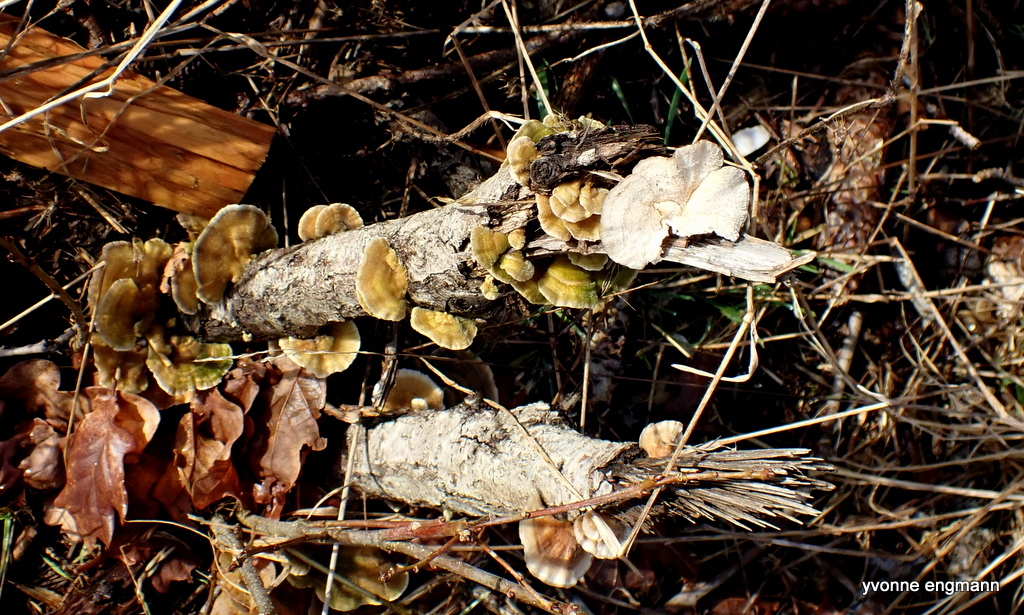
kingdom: Fungi
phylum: Basidiomycota
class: Agaricomycetes
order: Polyporales
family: Polyporaceae
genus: Trametes
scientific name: Trametes ochracea
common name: Ochre bracket
